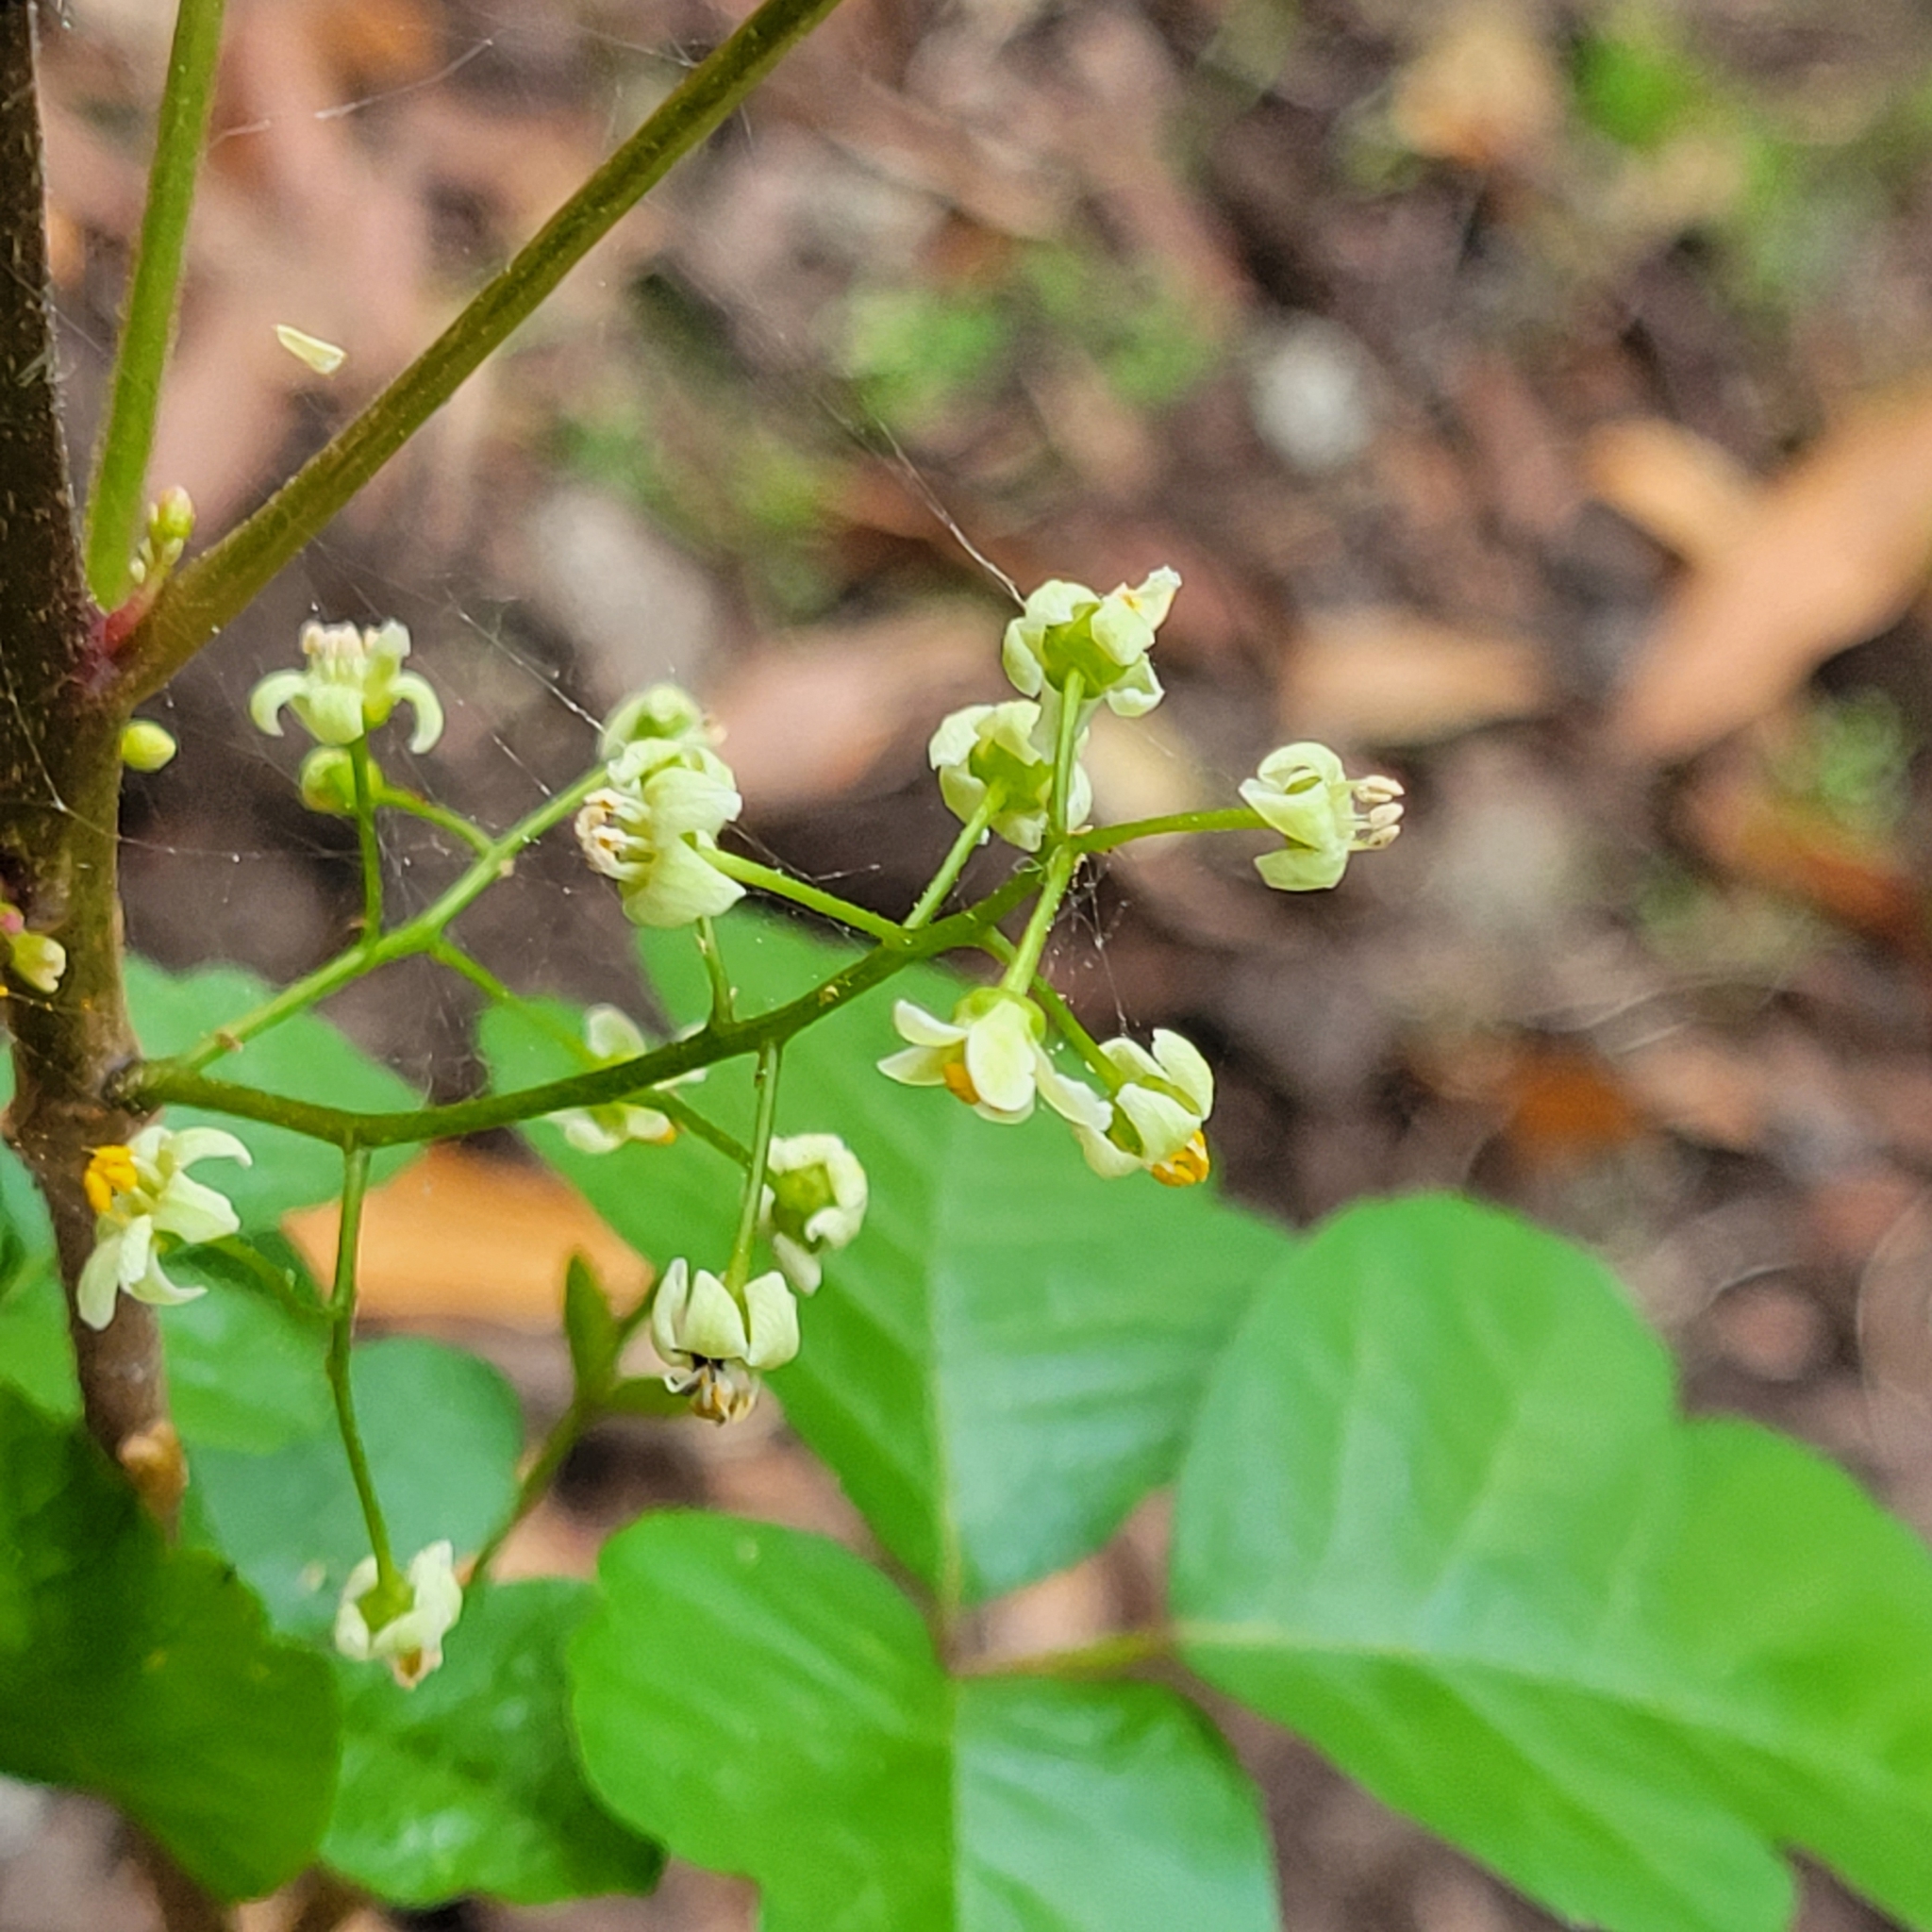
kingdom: Plantae
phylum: Tracheophyta
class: Magnoliopsida
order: Sapindales
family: Anacardiaceae
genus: Toxicodendron
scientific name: Toxicodendron diversilobum
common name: Pacific poison-oak
